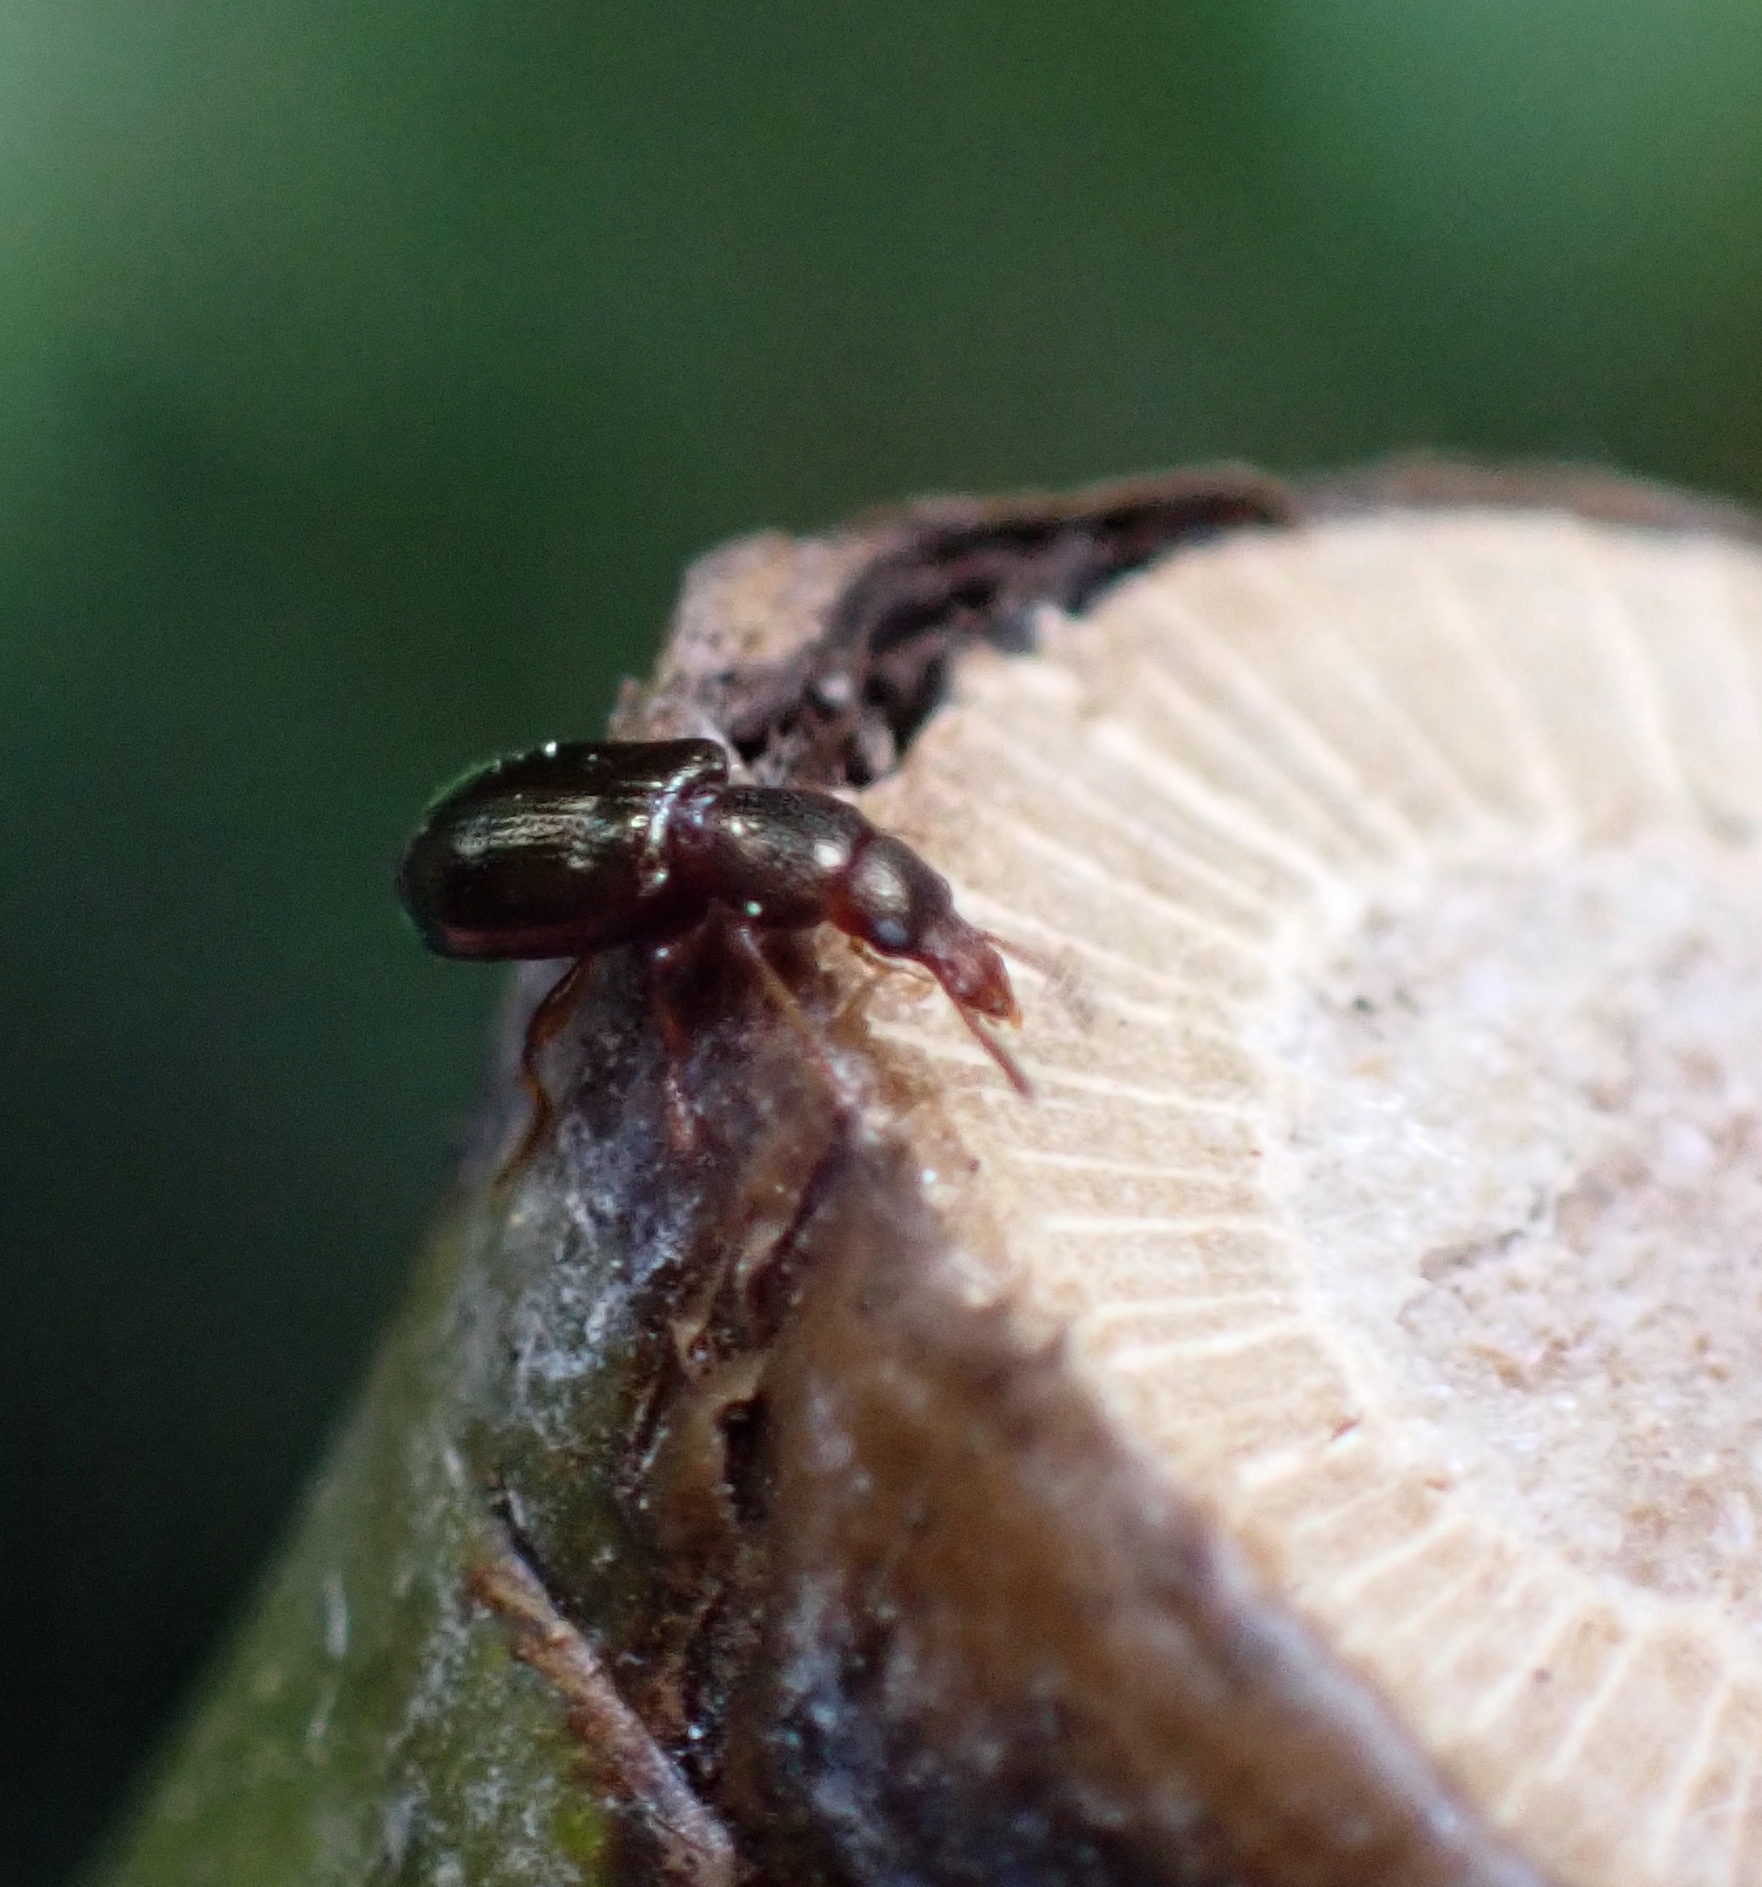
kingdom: Animalia
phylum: Arthropoda
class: Insecta
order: Coleoptera
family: Salpingidae
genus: Salpingus
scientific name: Salpingus planirostris
